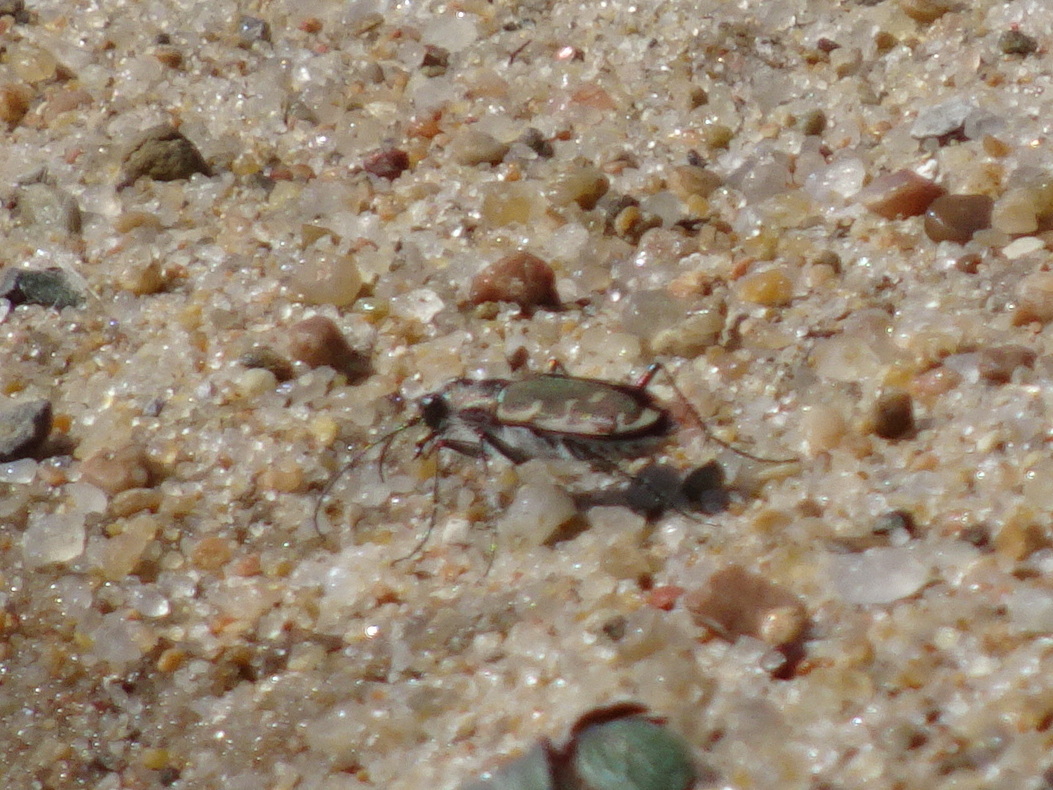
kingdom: Animalia
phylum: Arthropoda
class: Insecta
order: Coleoptera
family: Carabidae
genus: Cicindela
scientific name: Cicindela repanda
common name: Bronzed tiger beetle
